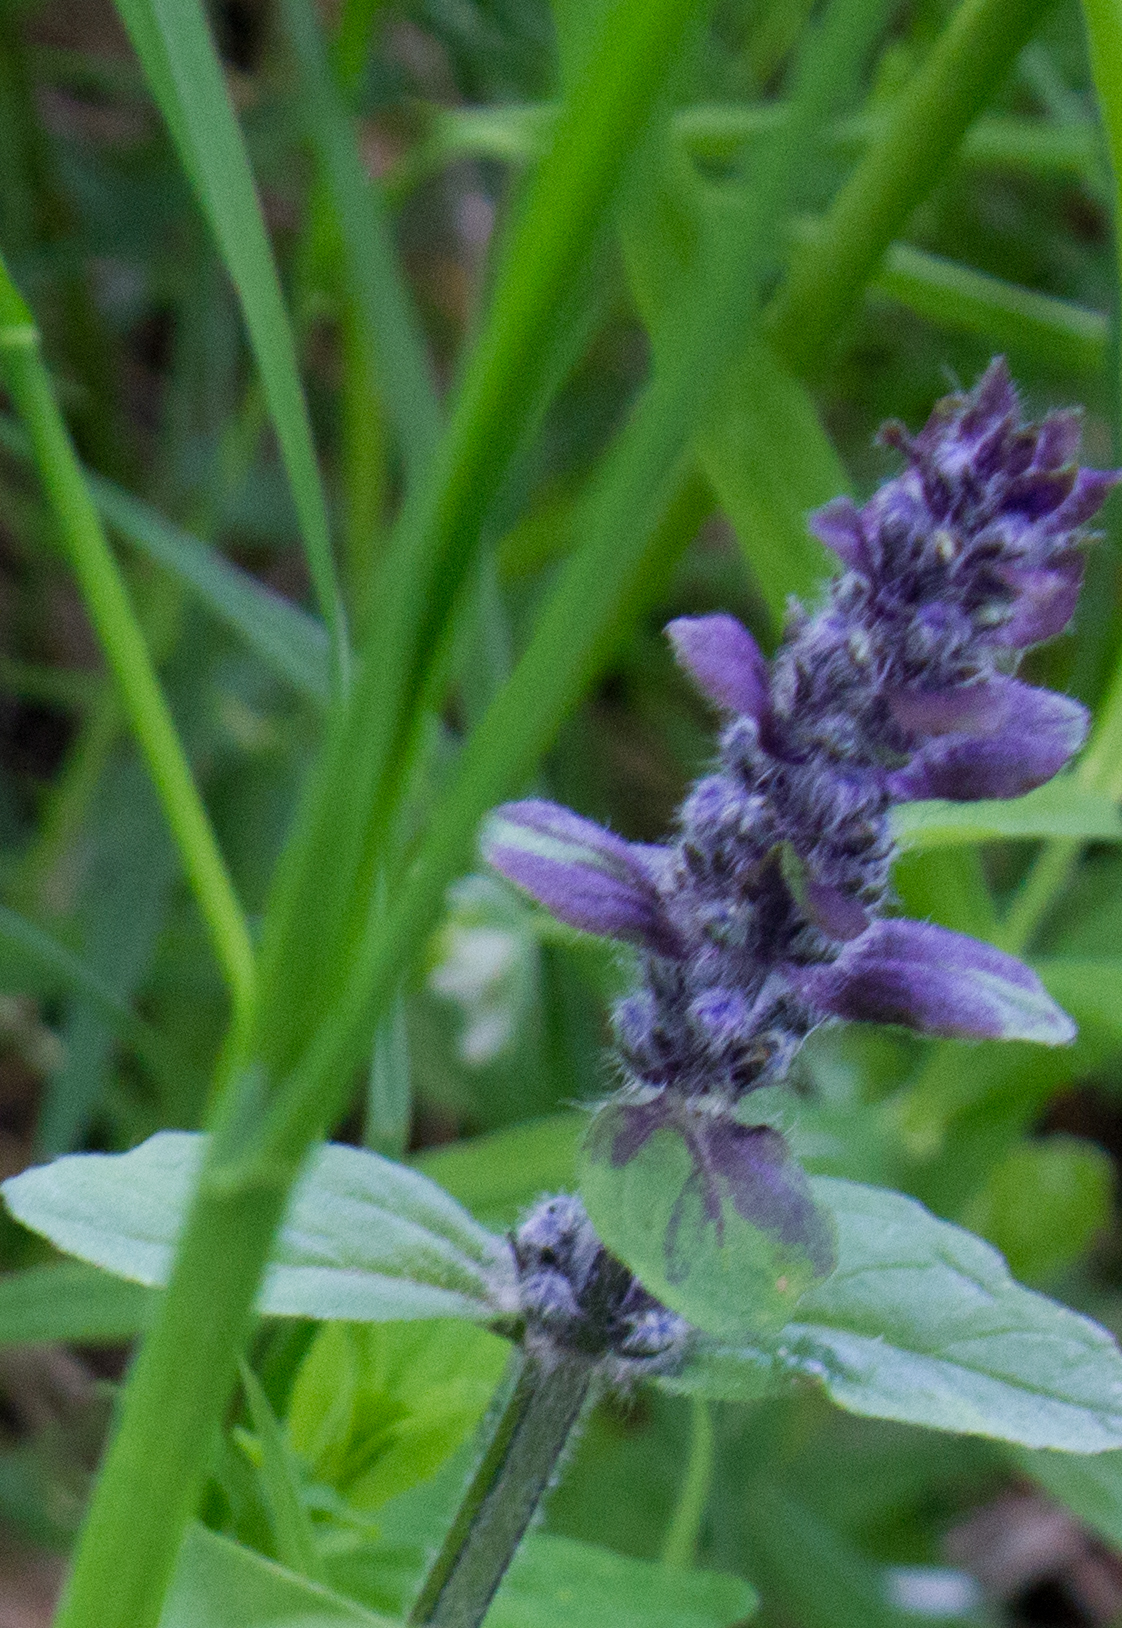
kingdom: Plantae
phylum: Tracheophyta
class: Magnoliopsida
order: Lamiales
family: Lamiaceae
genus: Ajuga
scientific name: Ajuga reptans
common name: Bugle
